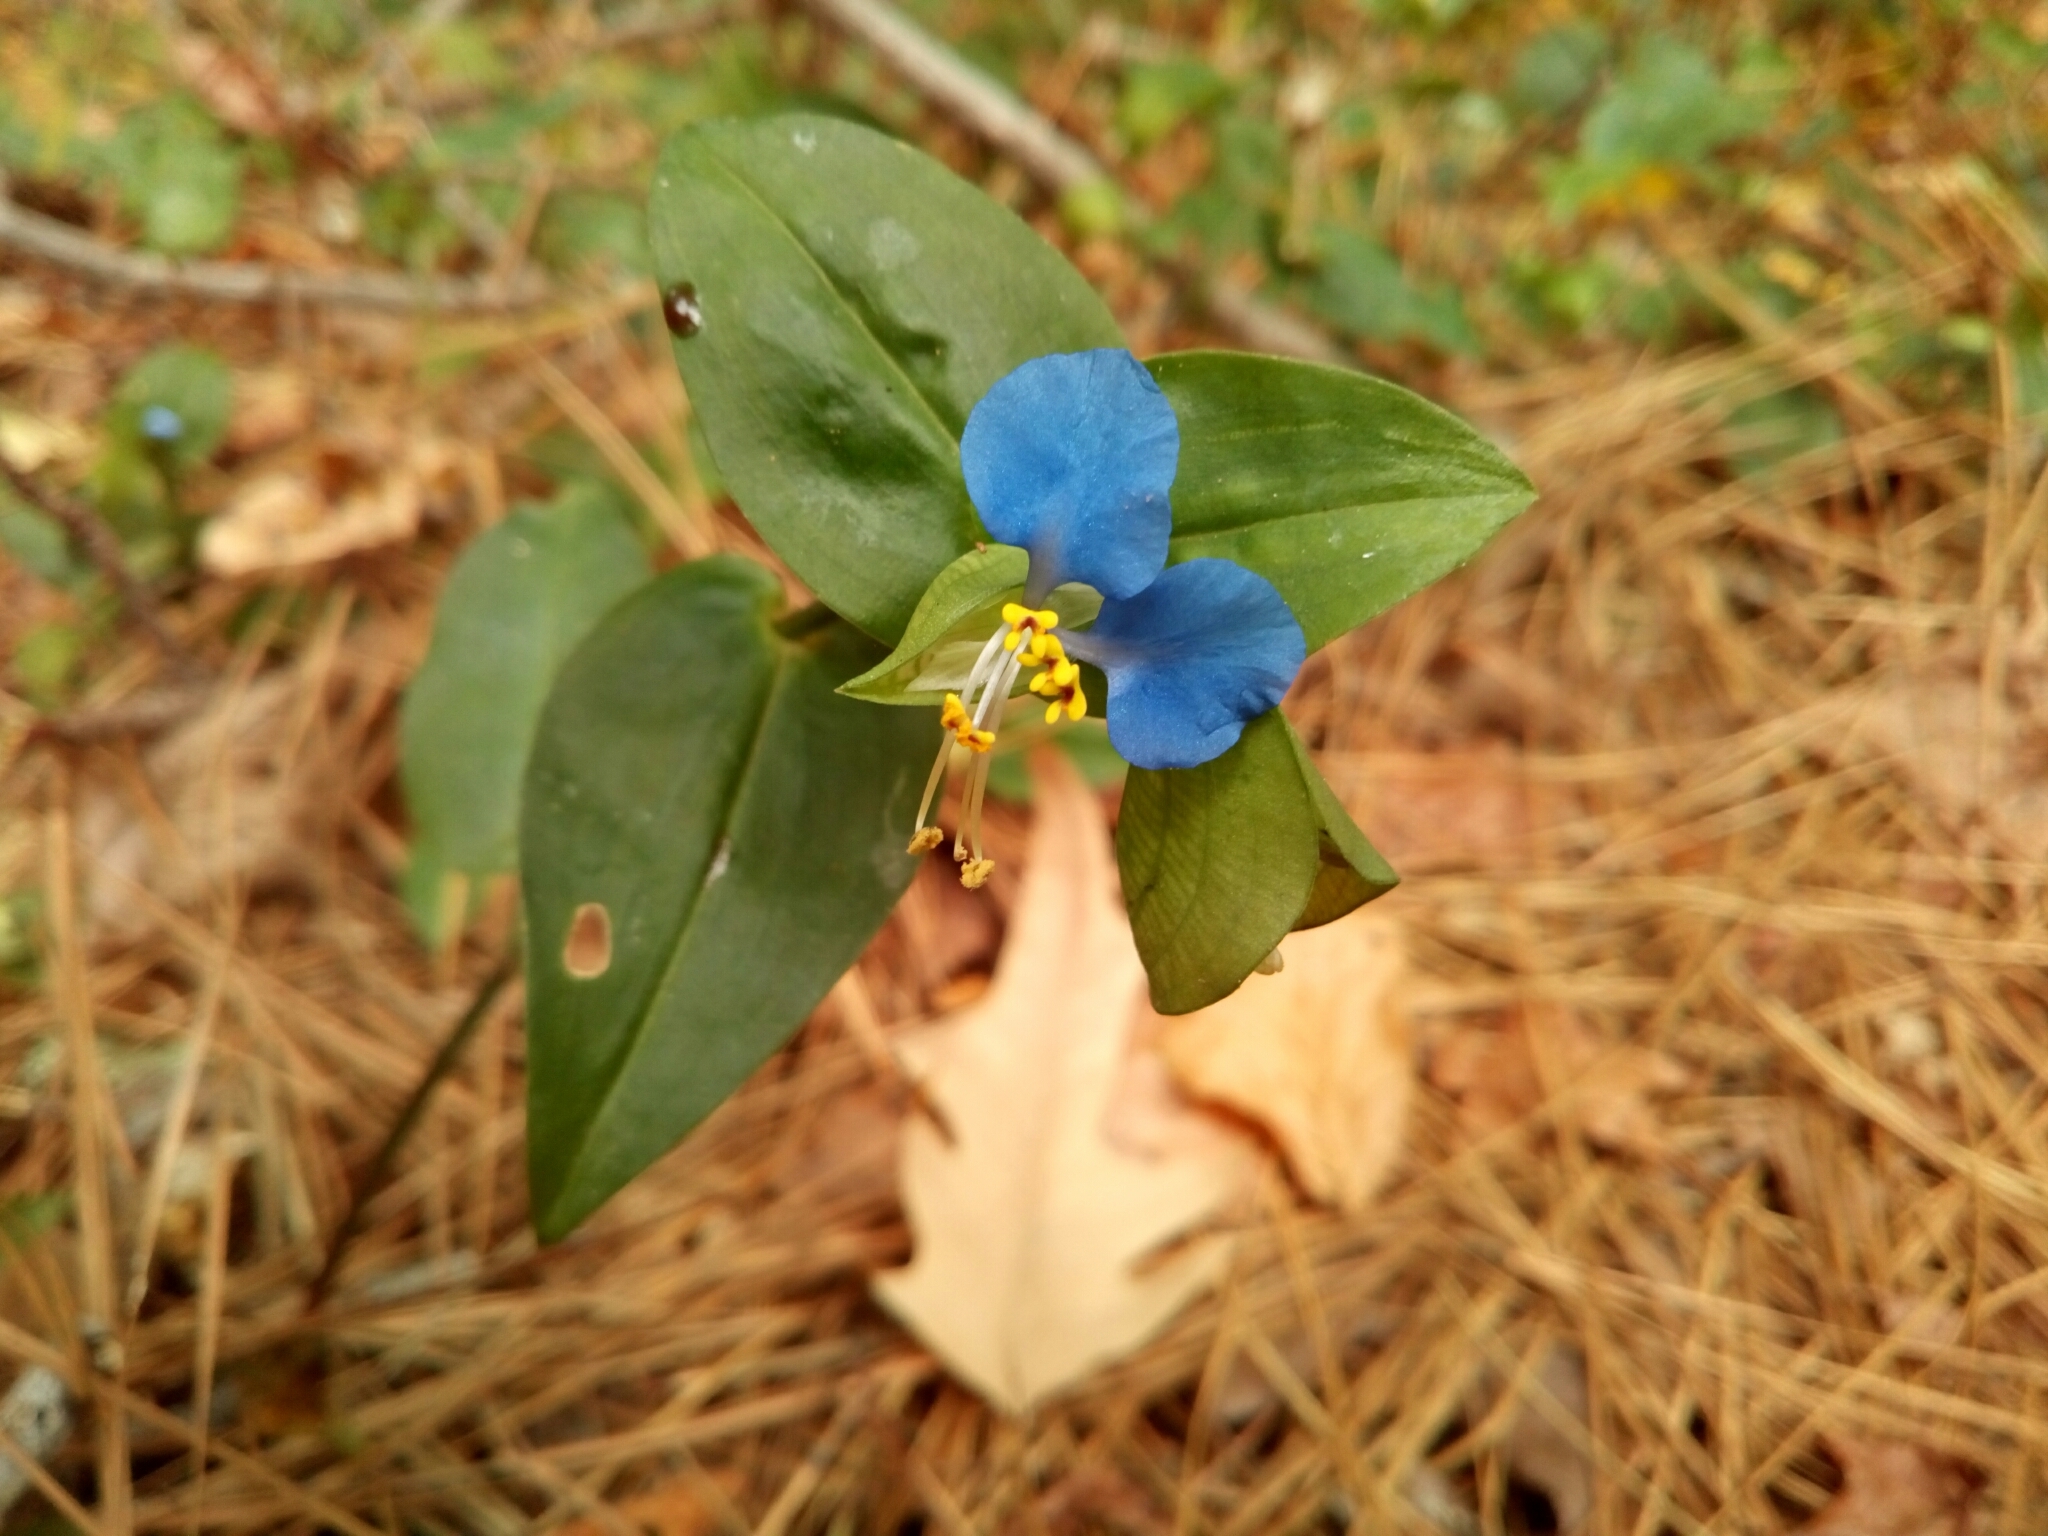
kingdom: Plantae
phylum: Tracheophyta
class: Liliopsida
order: Commelinales
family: Commelinaceae
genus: Commelina
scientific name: Commelina communis
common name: Asiatic dayflower
